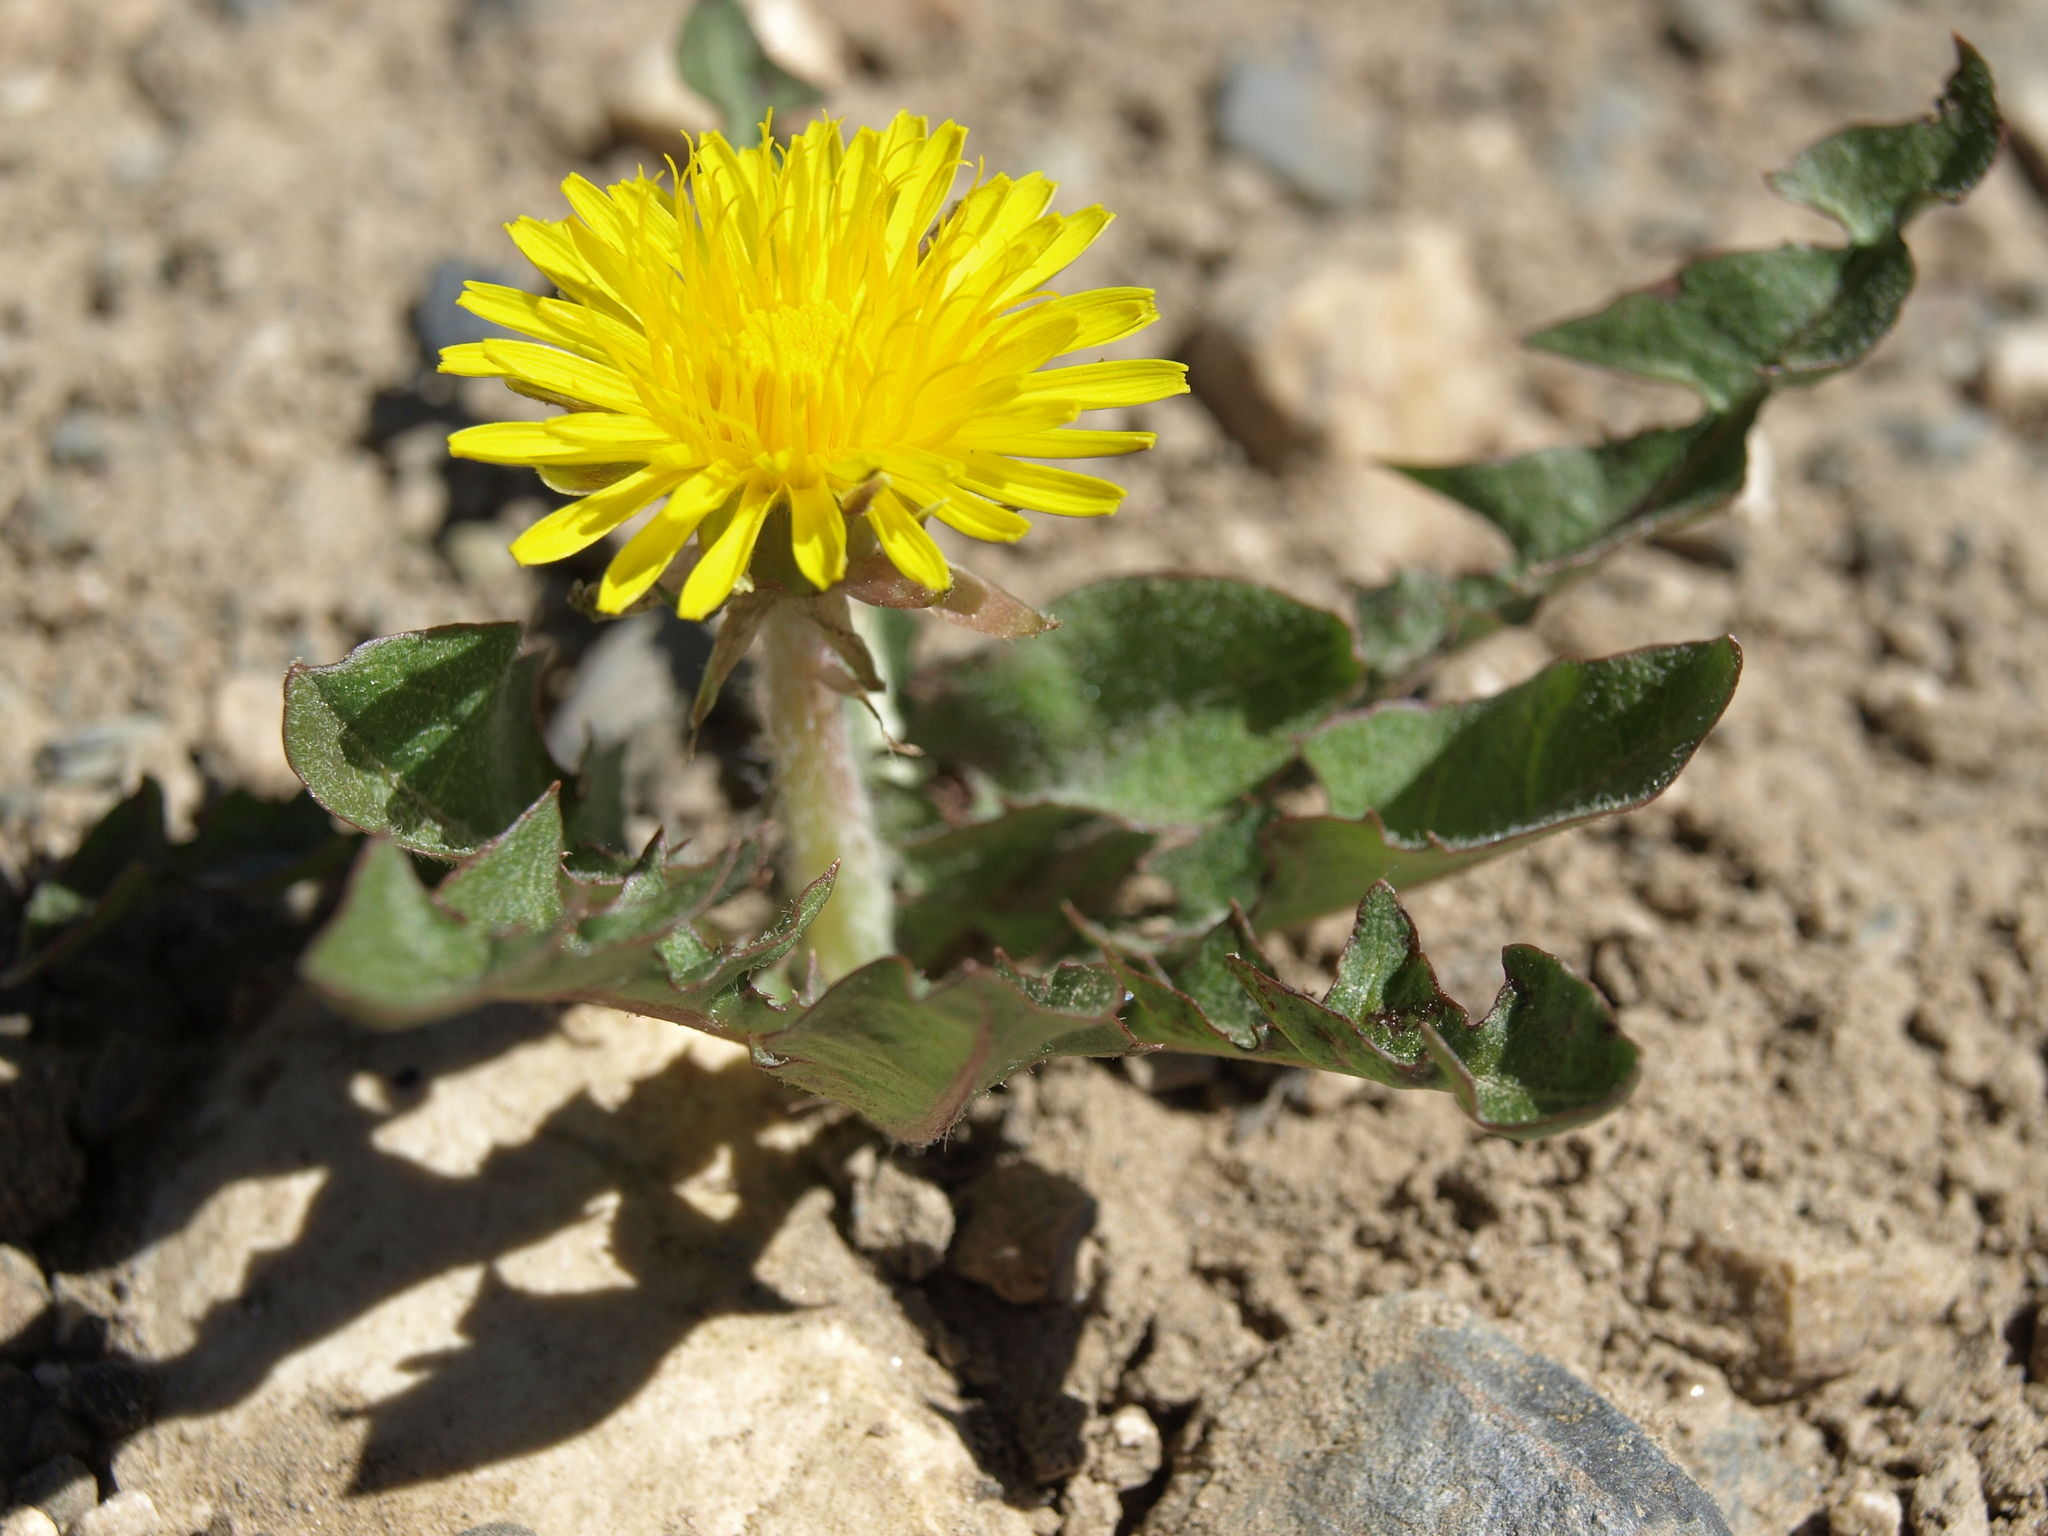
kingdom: Plantae
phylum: Tracheophyta
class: Magnoliopsida
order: Asterales
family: Asteraceae
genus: Taraxacum
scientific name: Taraxacum officinale
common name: Common dandelion
